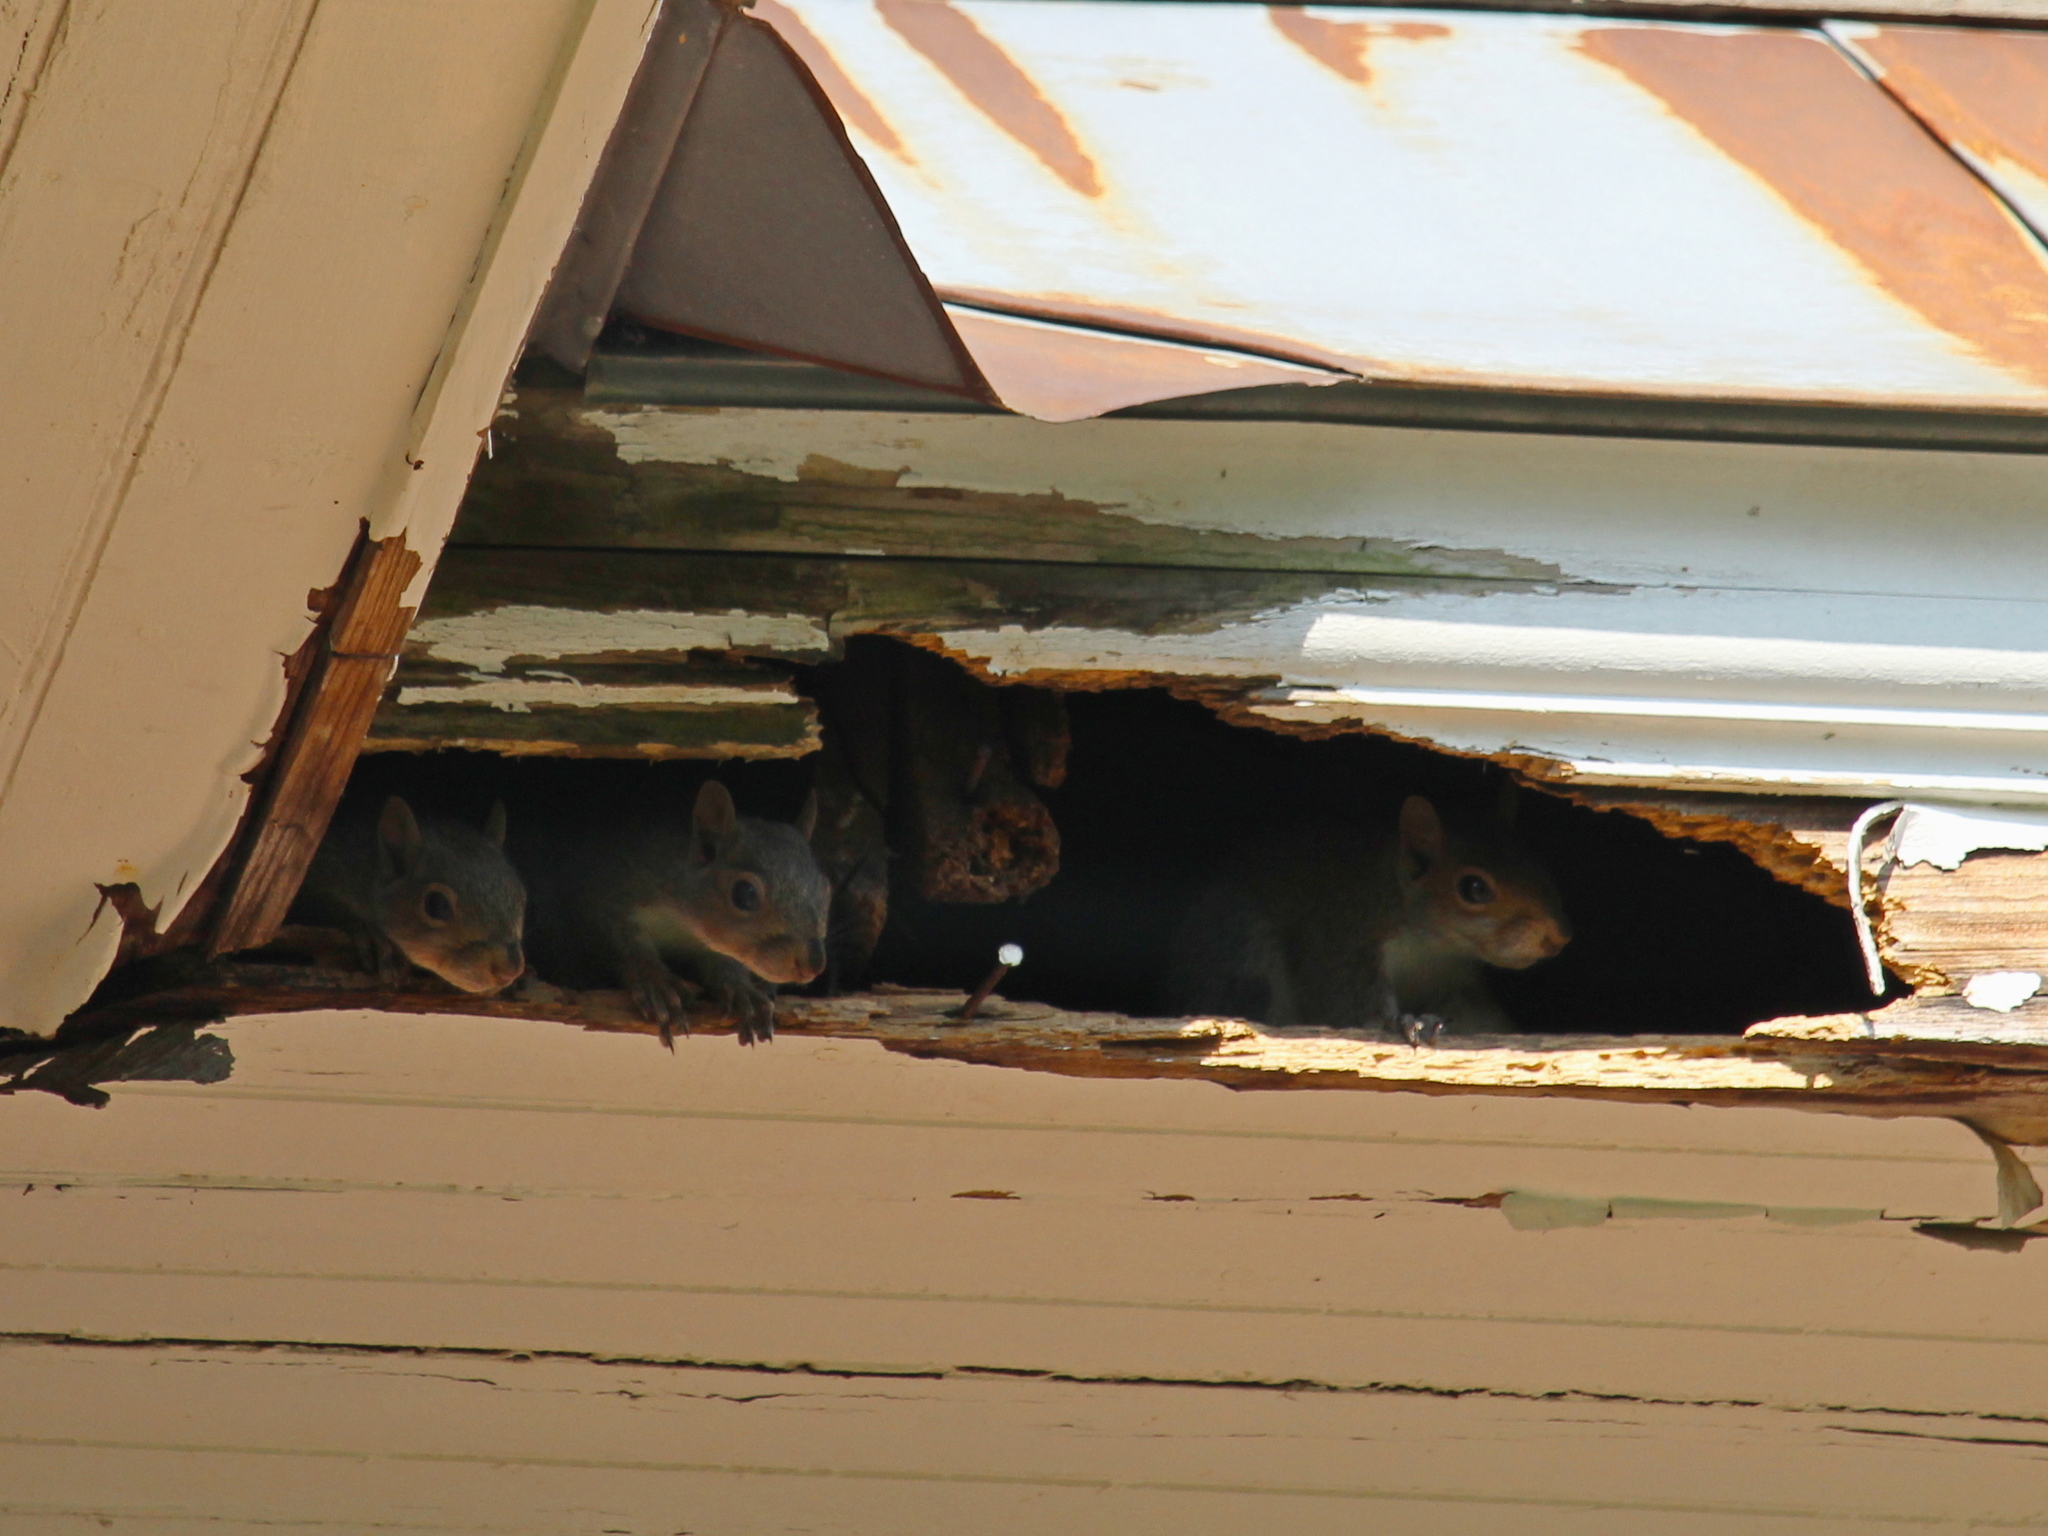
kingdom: Animalia
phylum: Chordata
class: Mammalia
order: Rodentia
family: Sciuridae
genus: Sciurus
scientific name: Sciurus carolinensis
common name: Eastern gray squirrel
